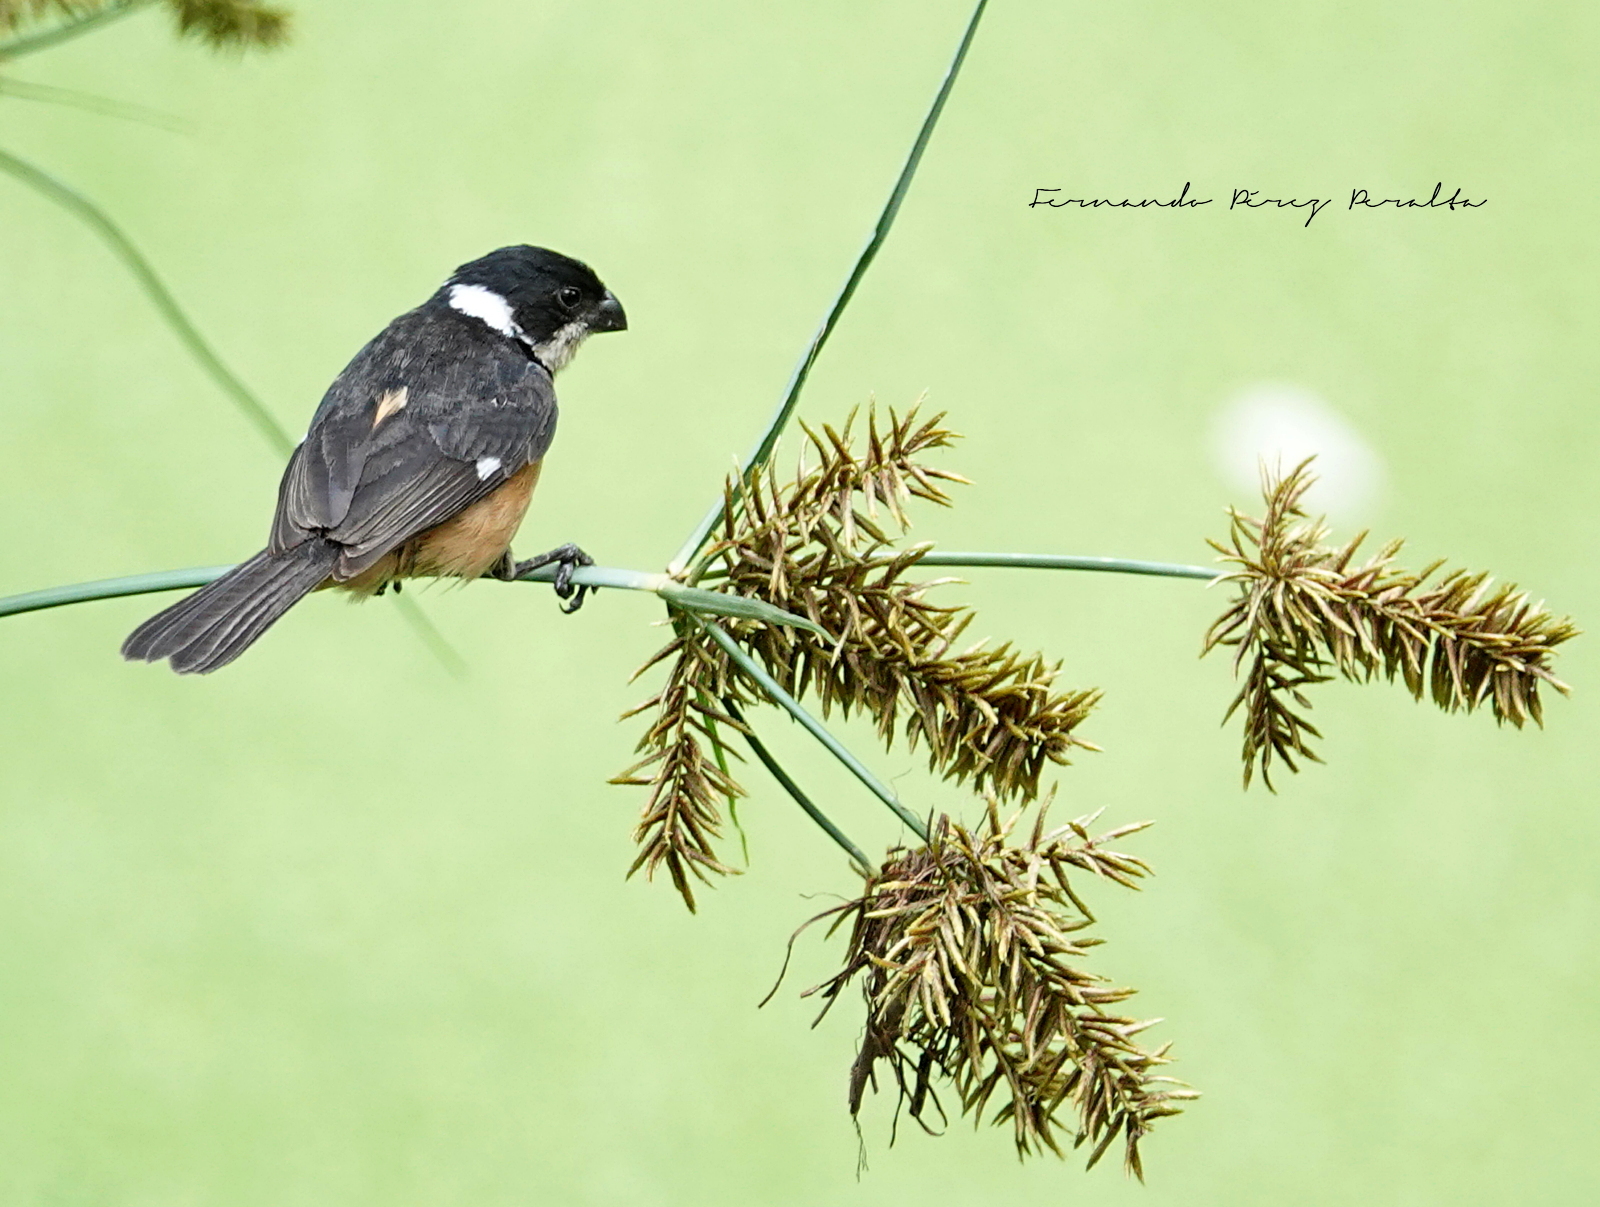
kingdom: Animalia
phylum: Chordata
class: Aves
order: Passeriformes
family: Thraupidae
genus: Sporophila
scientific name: Sporophila torqueola
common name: White-collared seedeater
